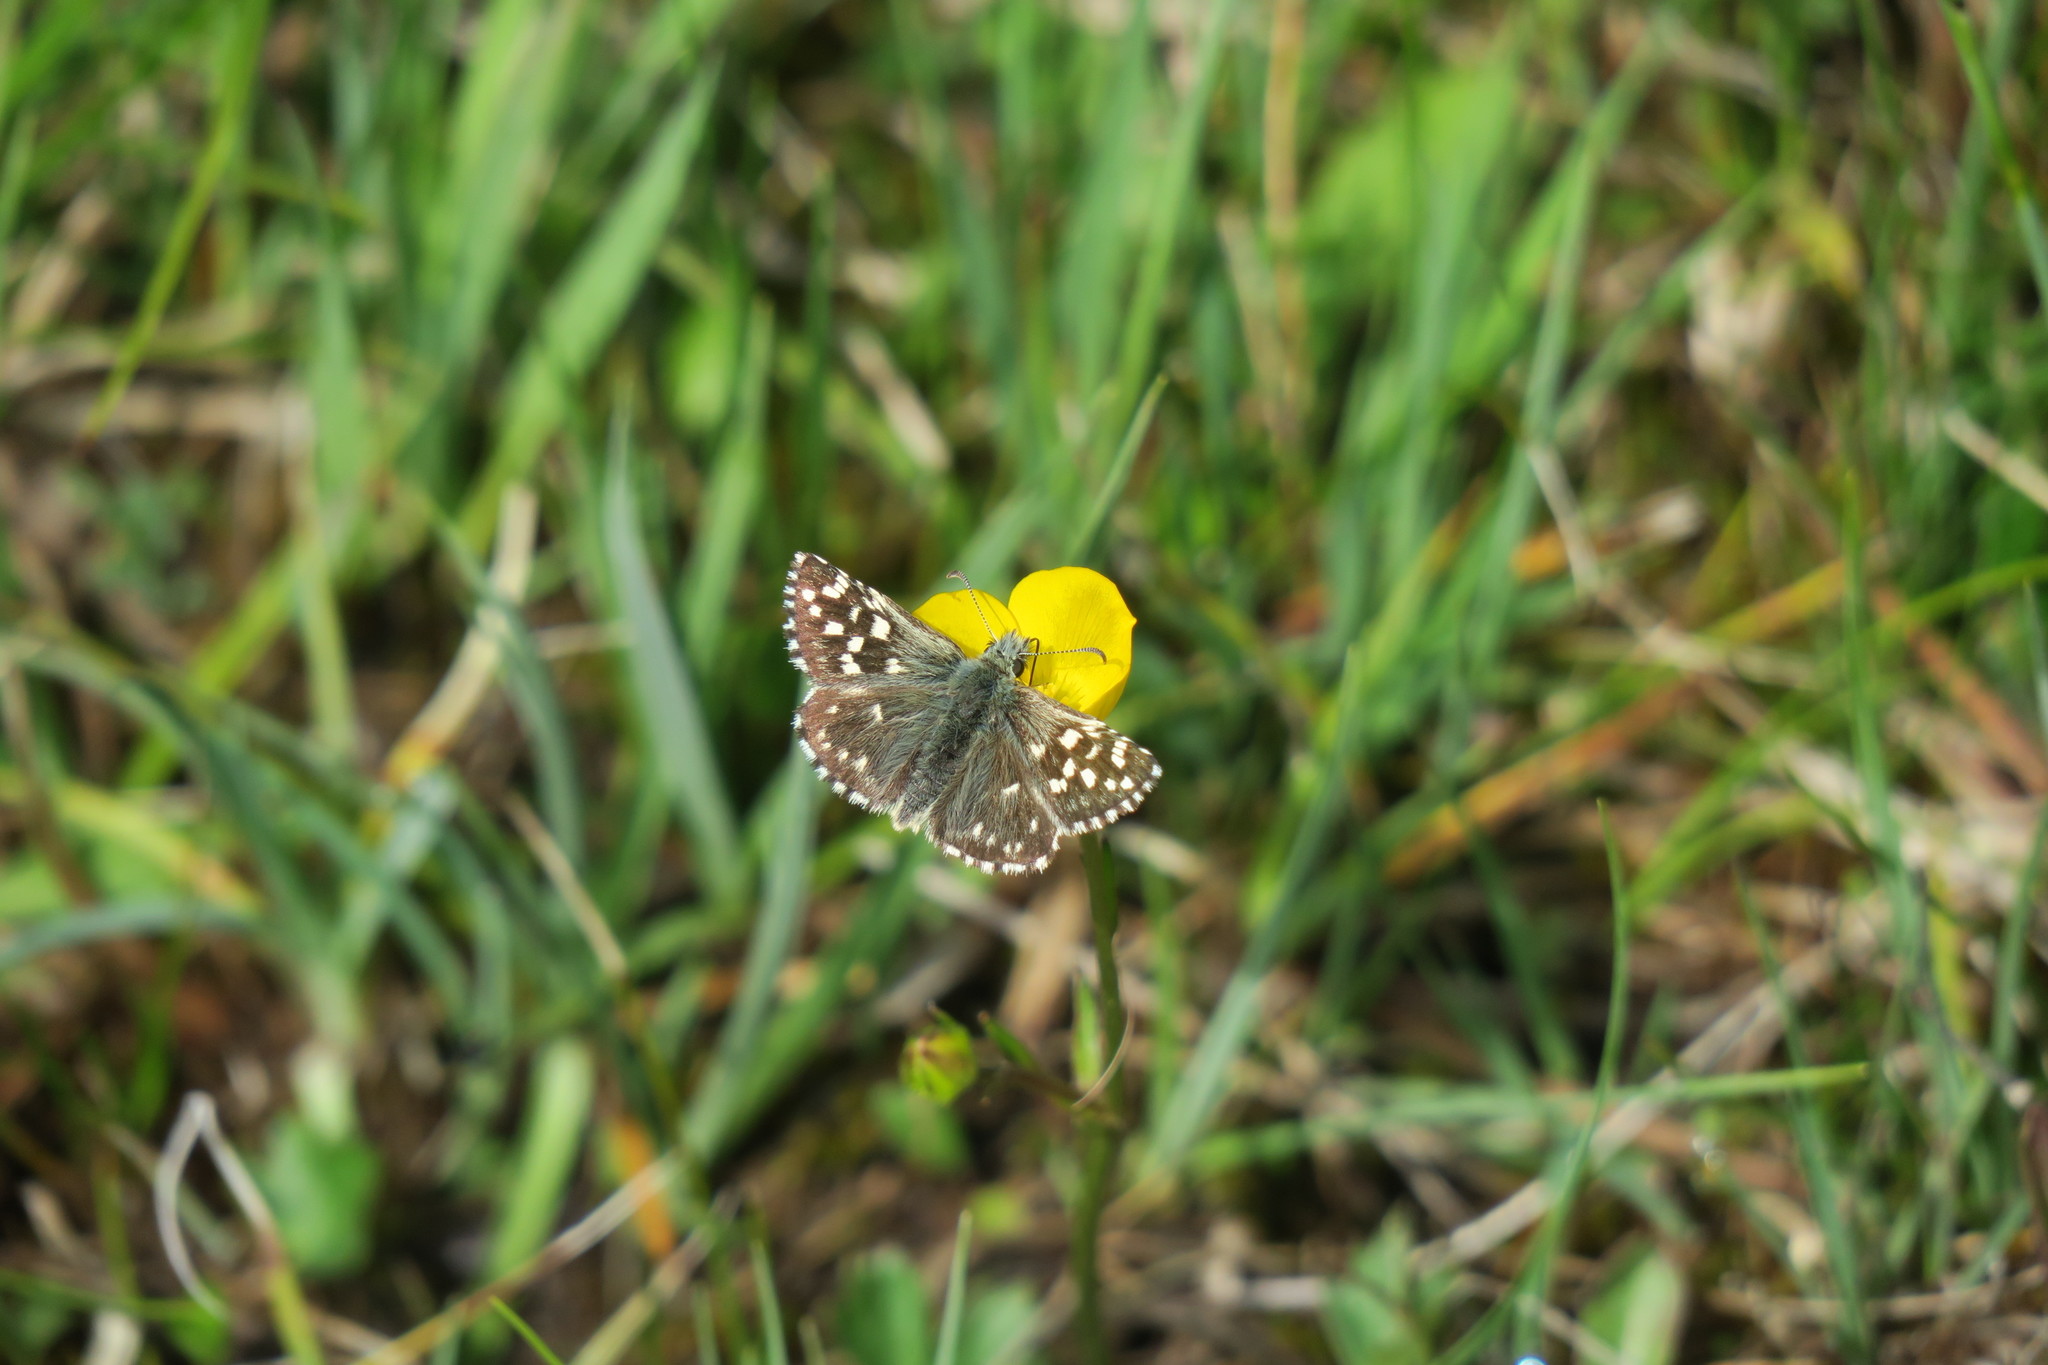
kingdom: Animalia
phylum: Arthropoda
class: Insecta
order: Lepidoptera
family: Hesperiidae
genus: Pyrgus
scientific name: Pyrgus malvae
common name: Grizzled skipper
